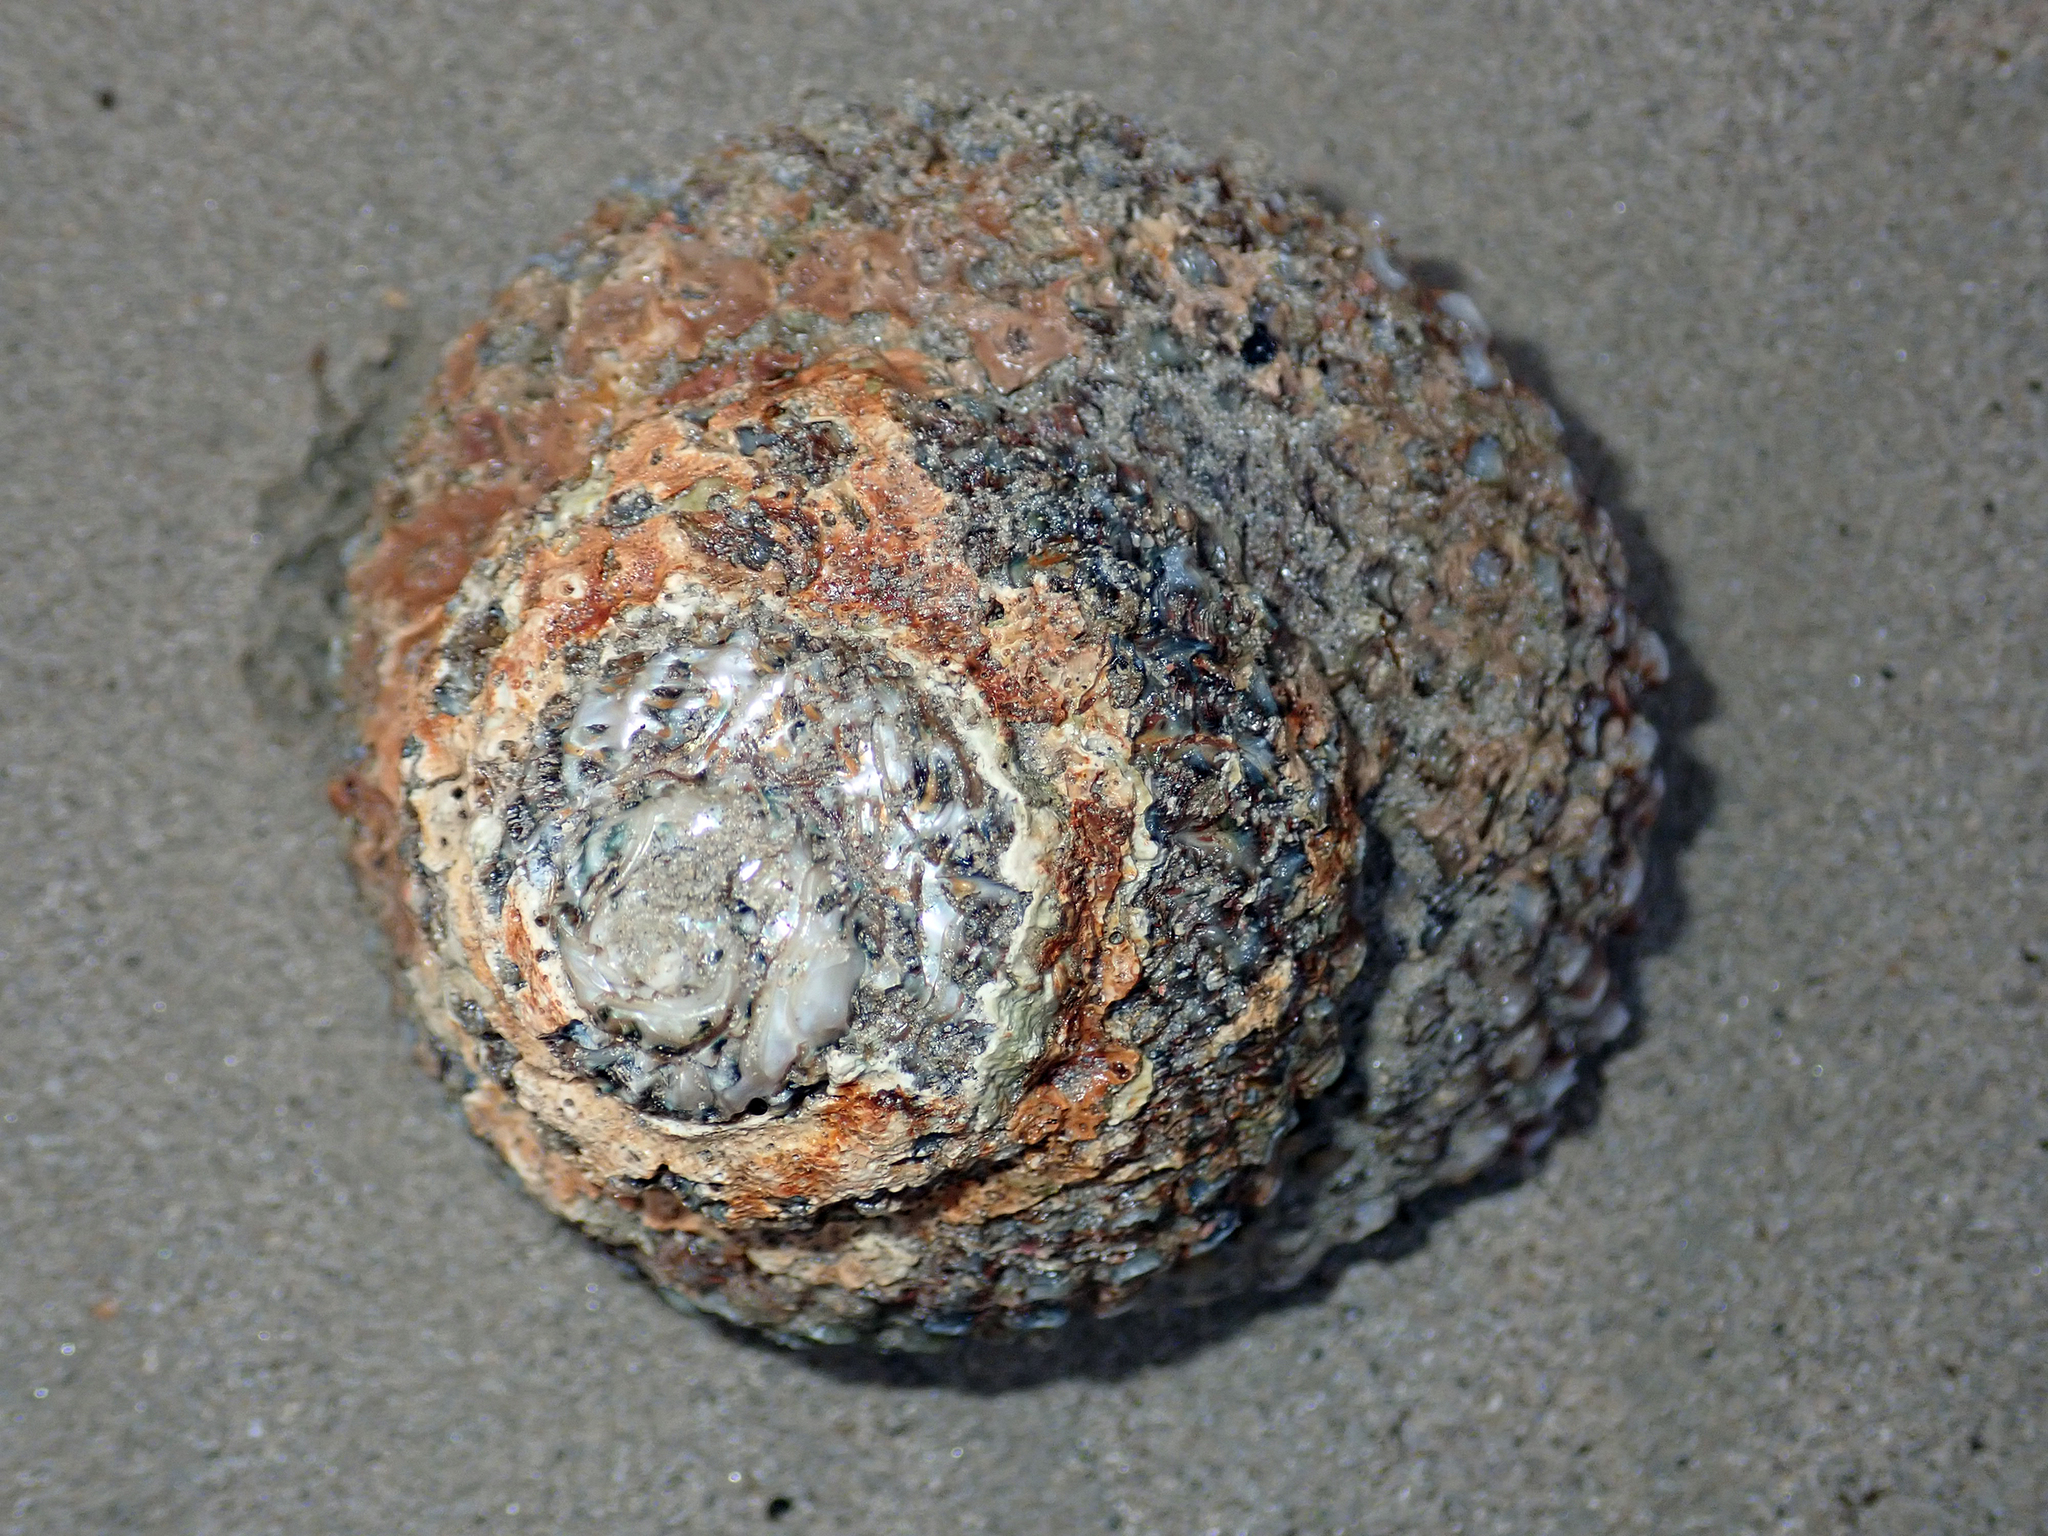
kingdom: Animalia
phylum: Mollusca
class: Gastropoda
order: Trochida
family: Turbinidae
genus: Cookia
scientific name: Cookia sulcata
